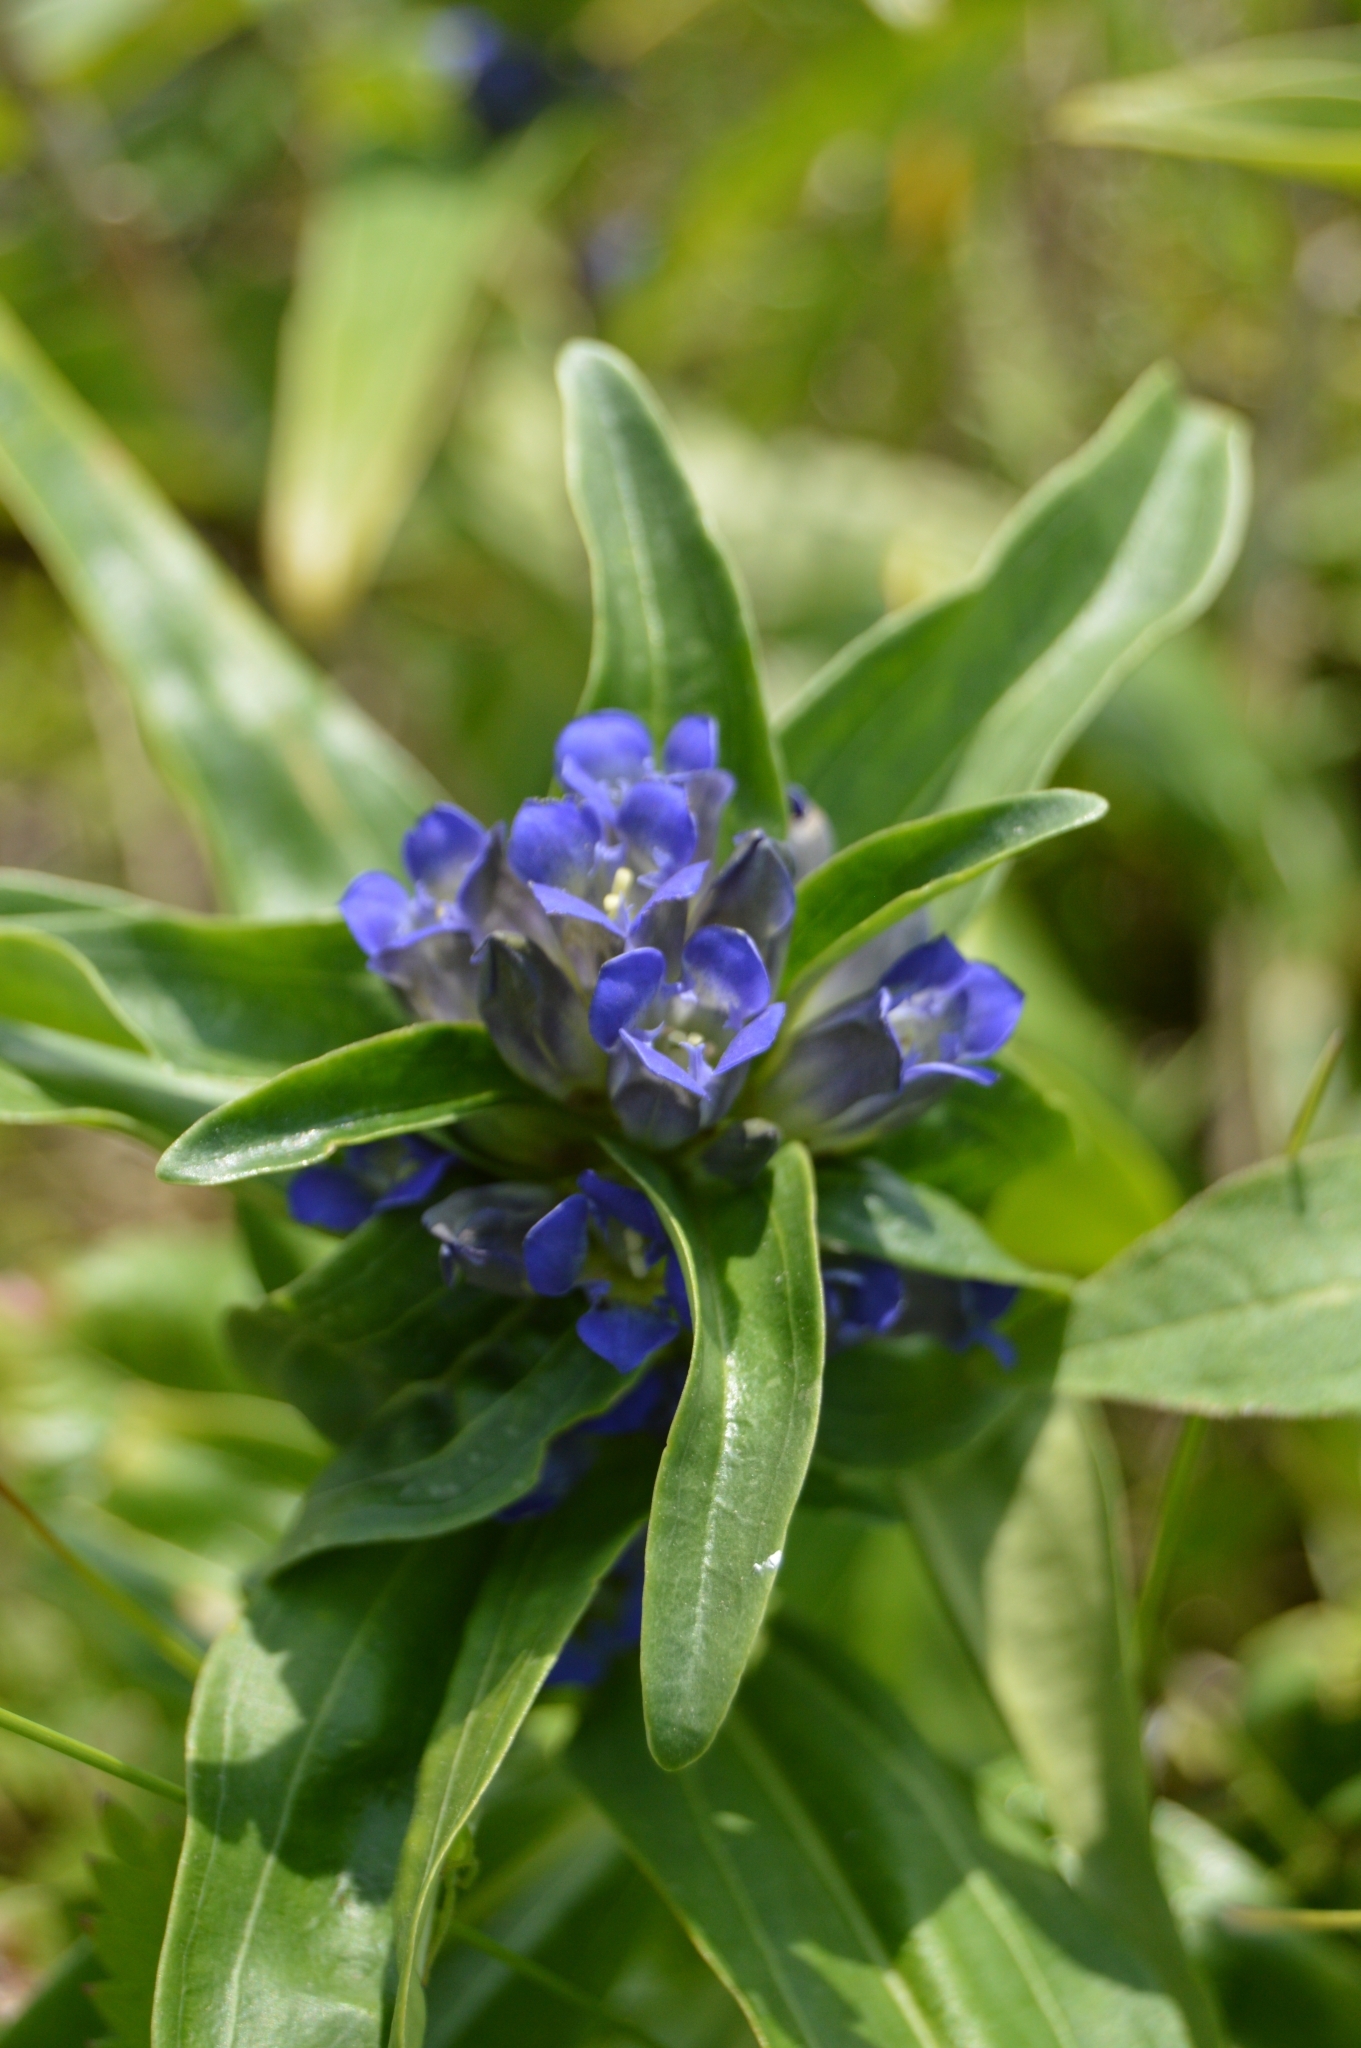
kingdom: Plantae
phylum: Tracheophyta
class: Magnoliopsida
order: Gentianales
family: Gentianaceae
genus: Gentiana
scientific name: Gentiana cruciata
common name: Cross gentian
